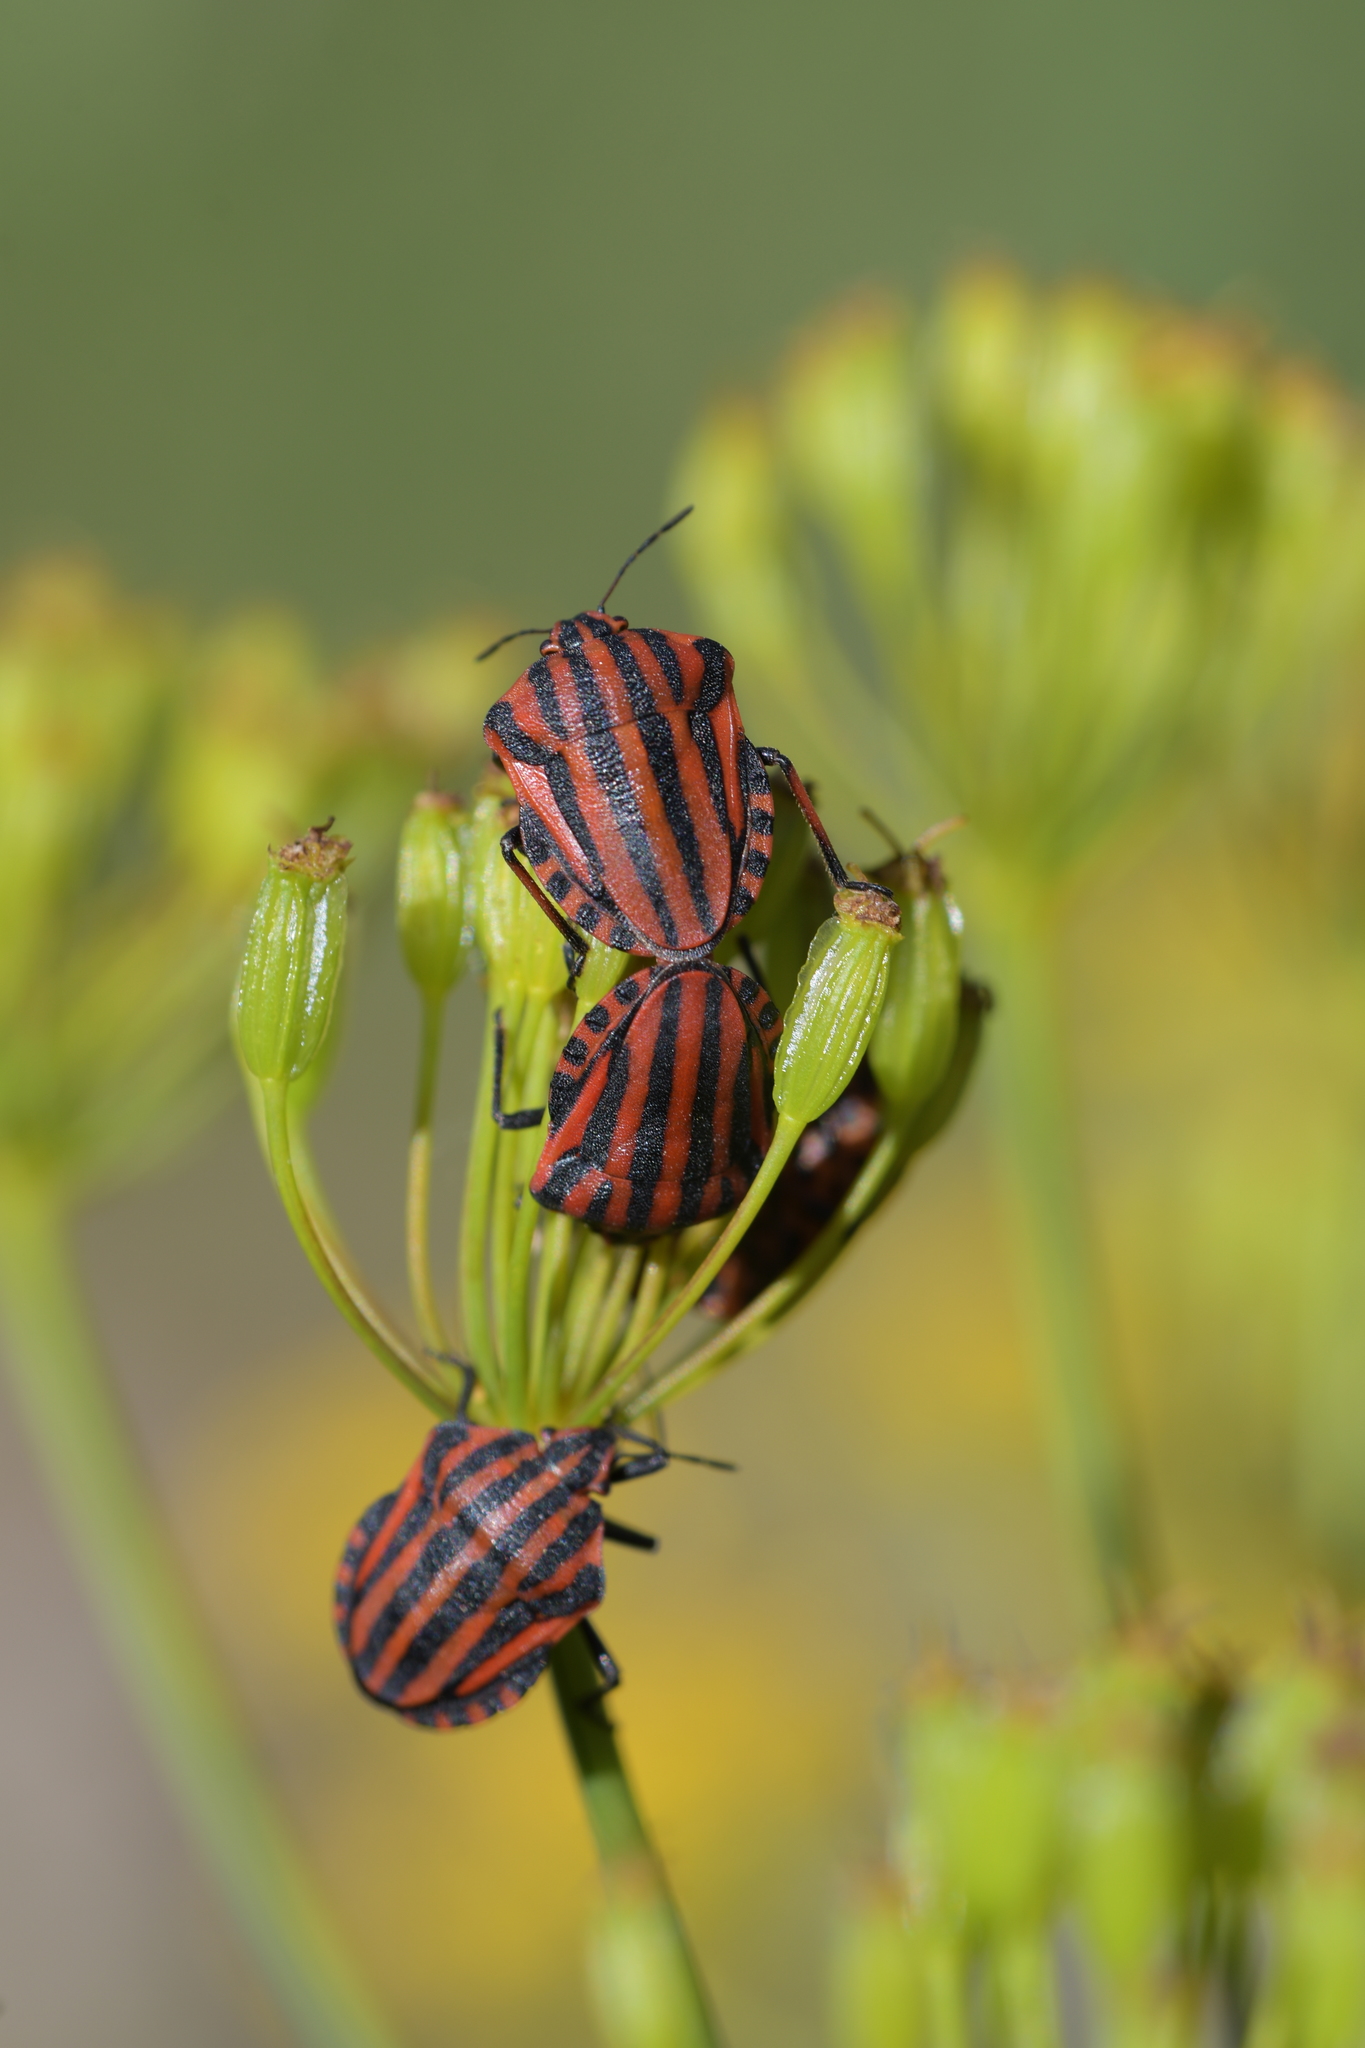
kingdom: Animalia
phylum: Arthropoda
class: Insecta
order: Hemiptera
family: Pentatomidae
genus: Graphosoma
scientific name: Graphosoma italicum
